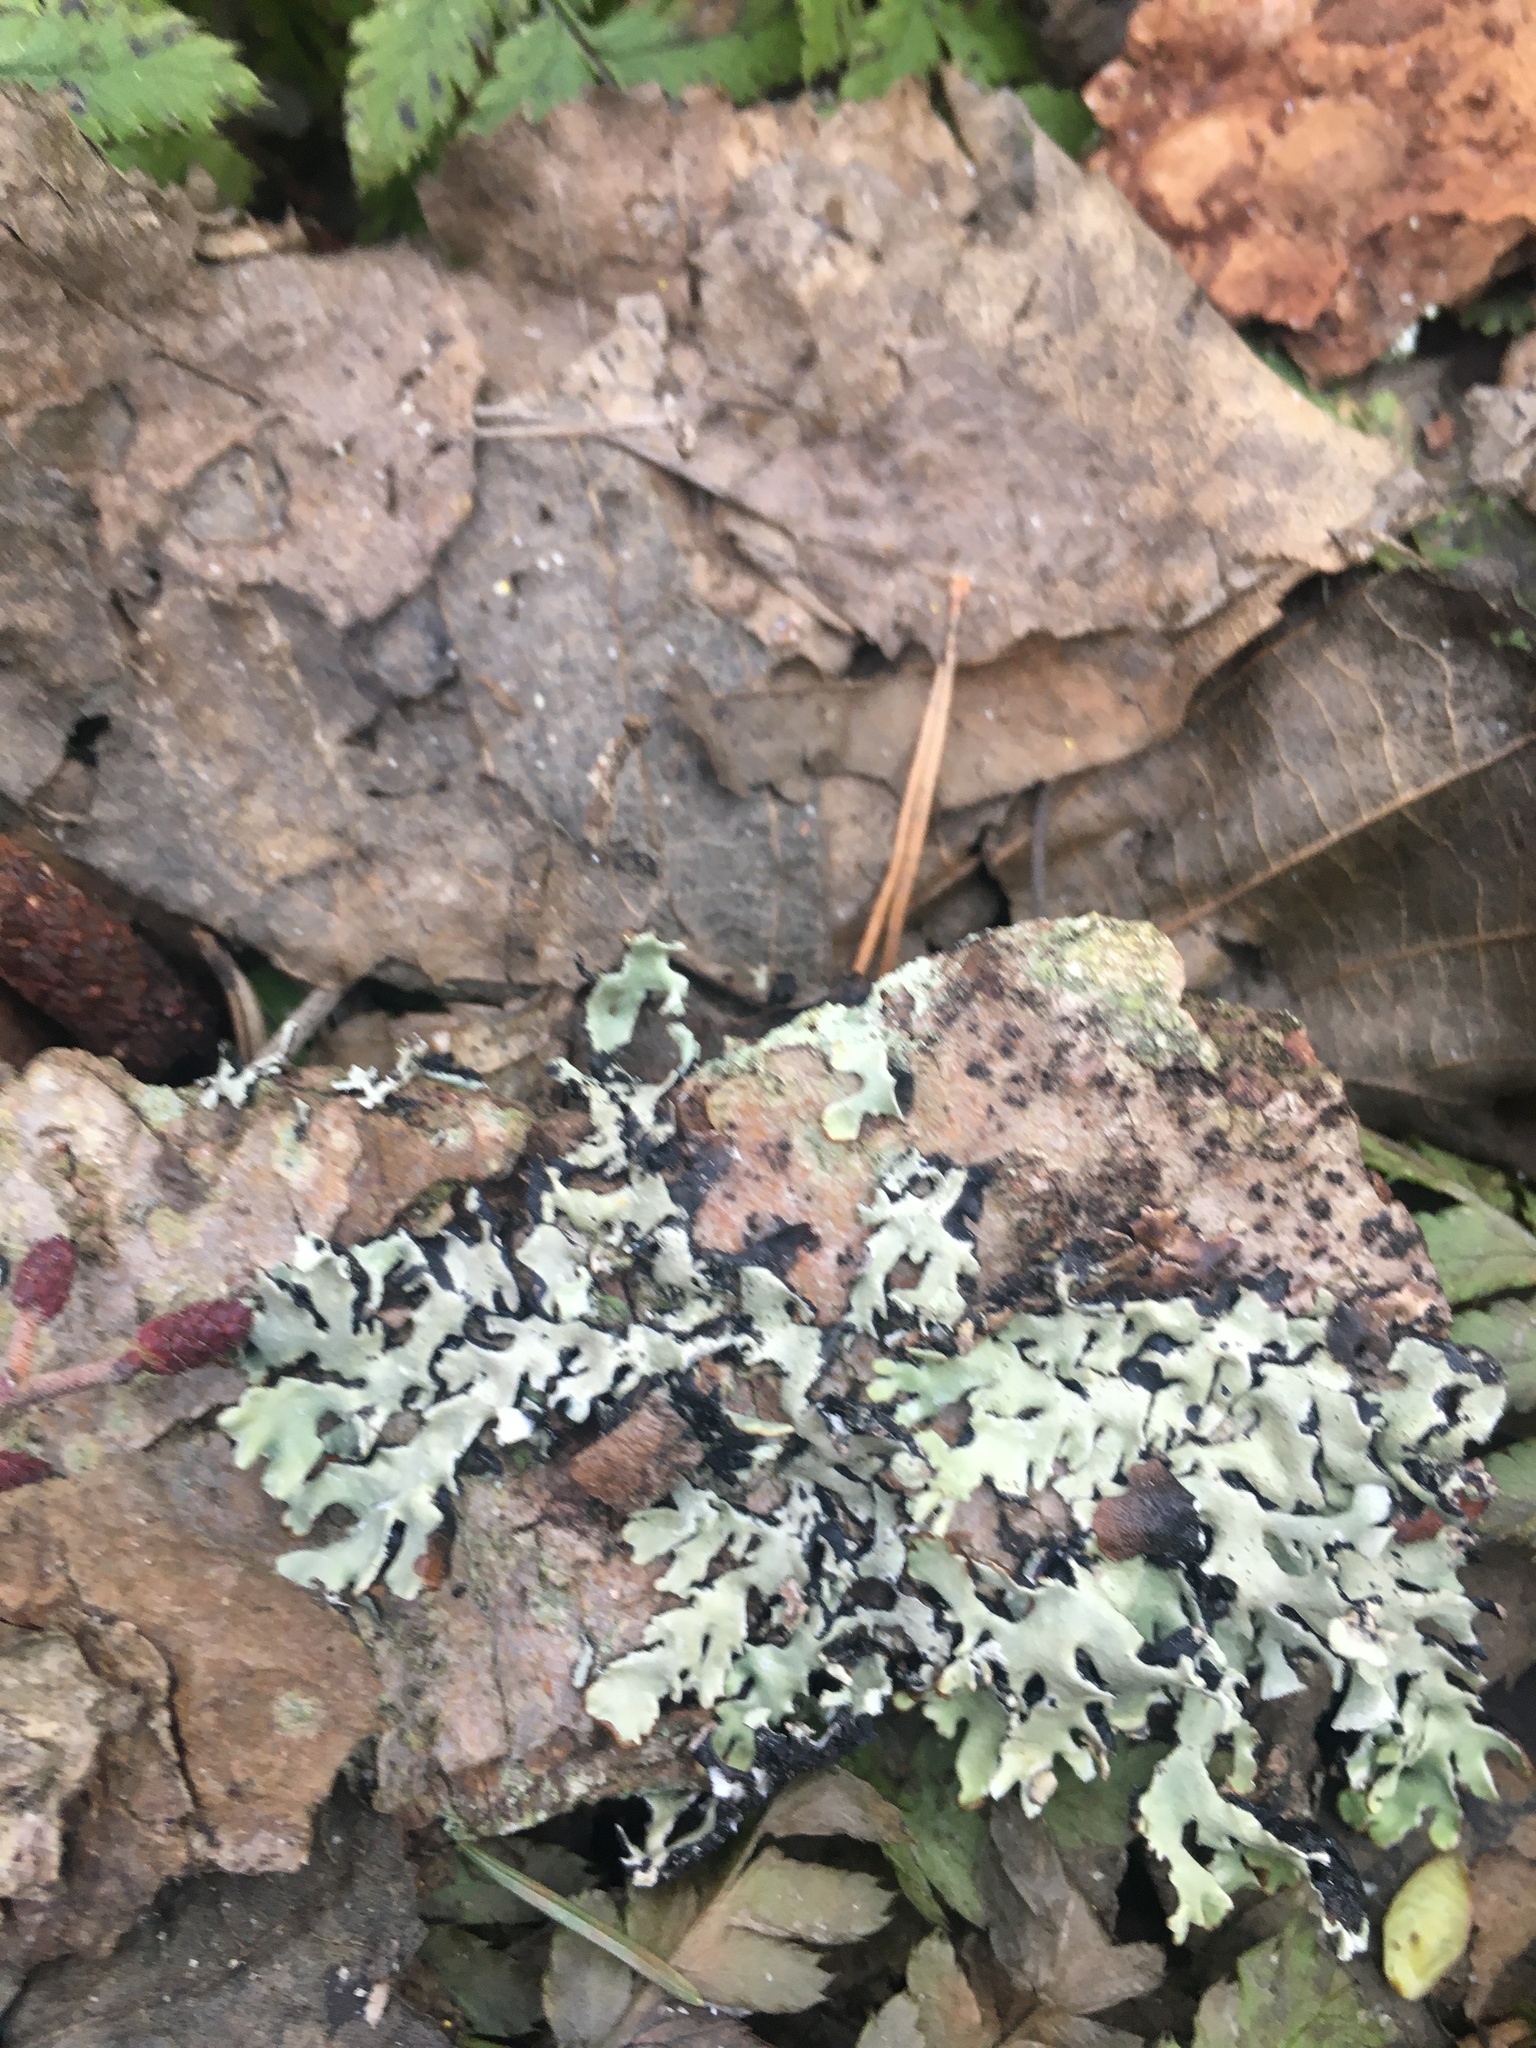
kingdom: Fungi
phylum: Ascomycota
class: Lecanoromycetes
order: Lecanorales
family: Parmeliaceae
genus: Hypogymnia
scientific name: Hypogymnia physodes
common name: Dark crottle
